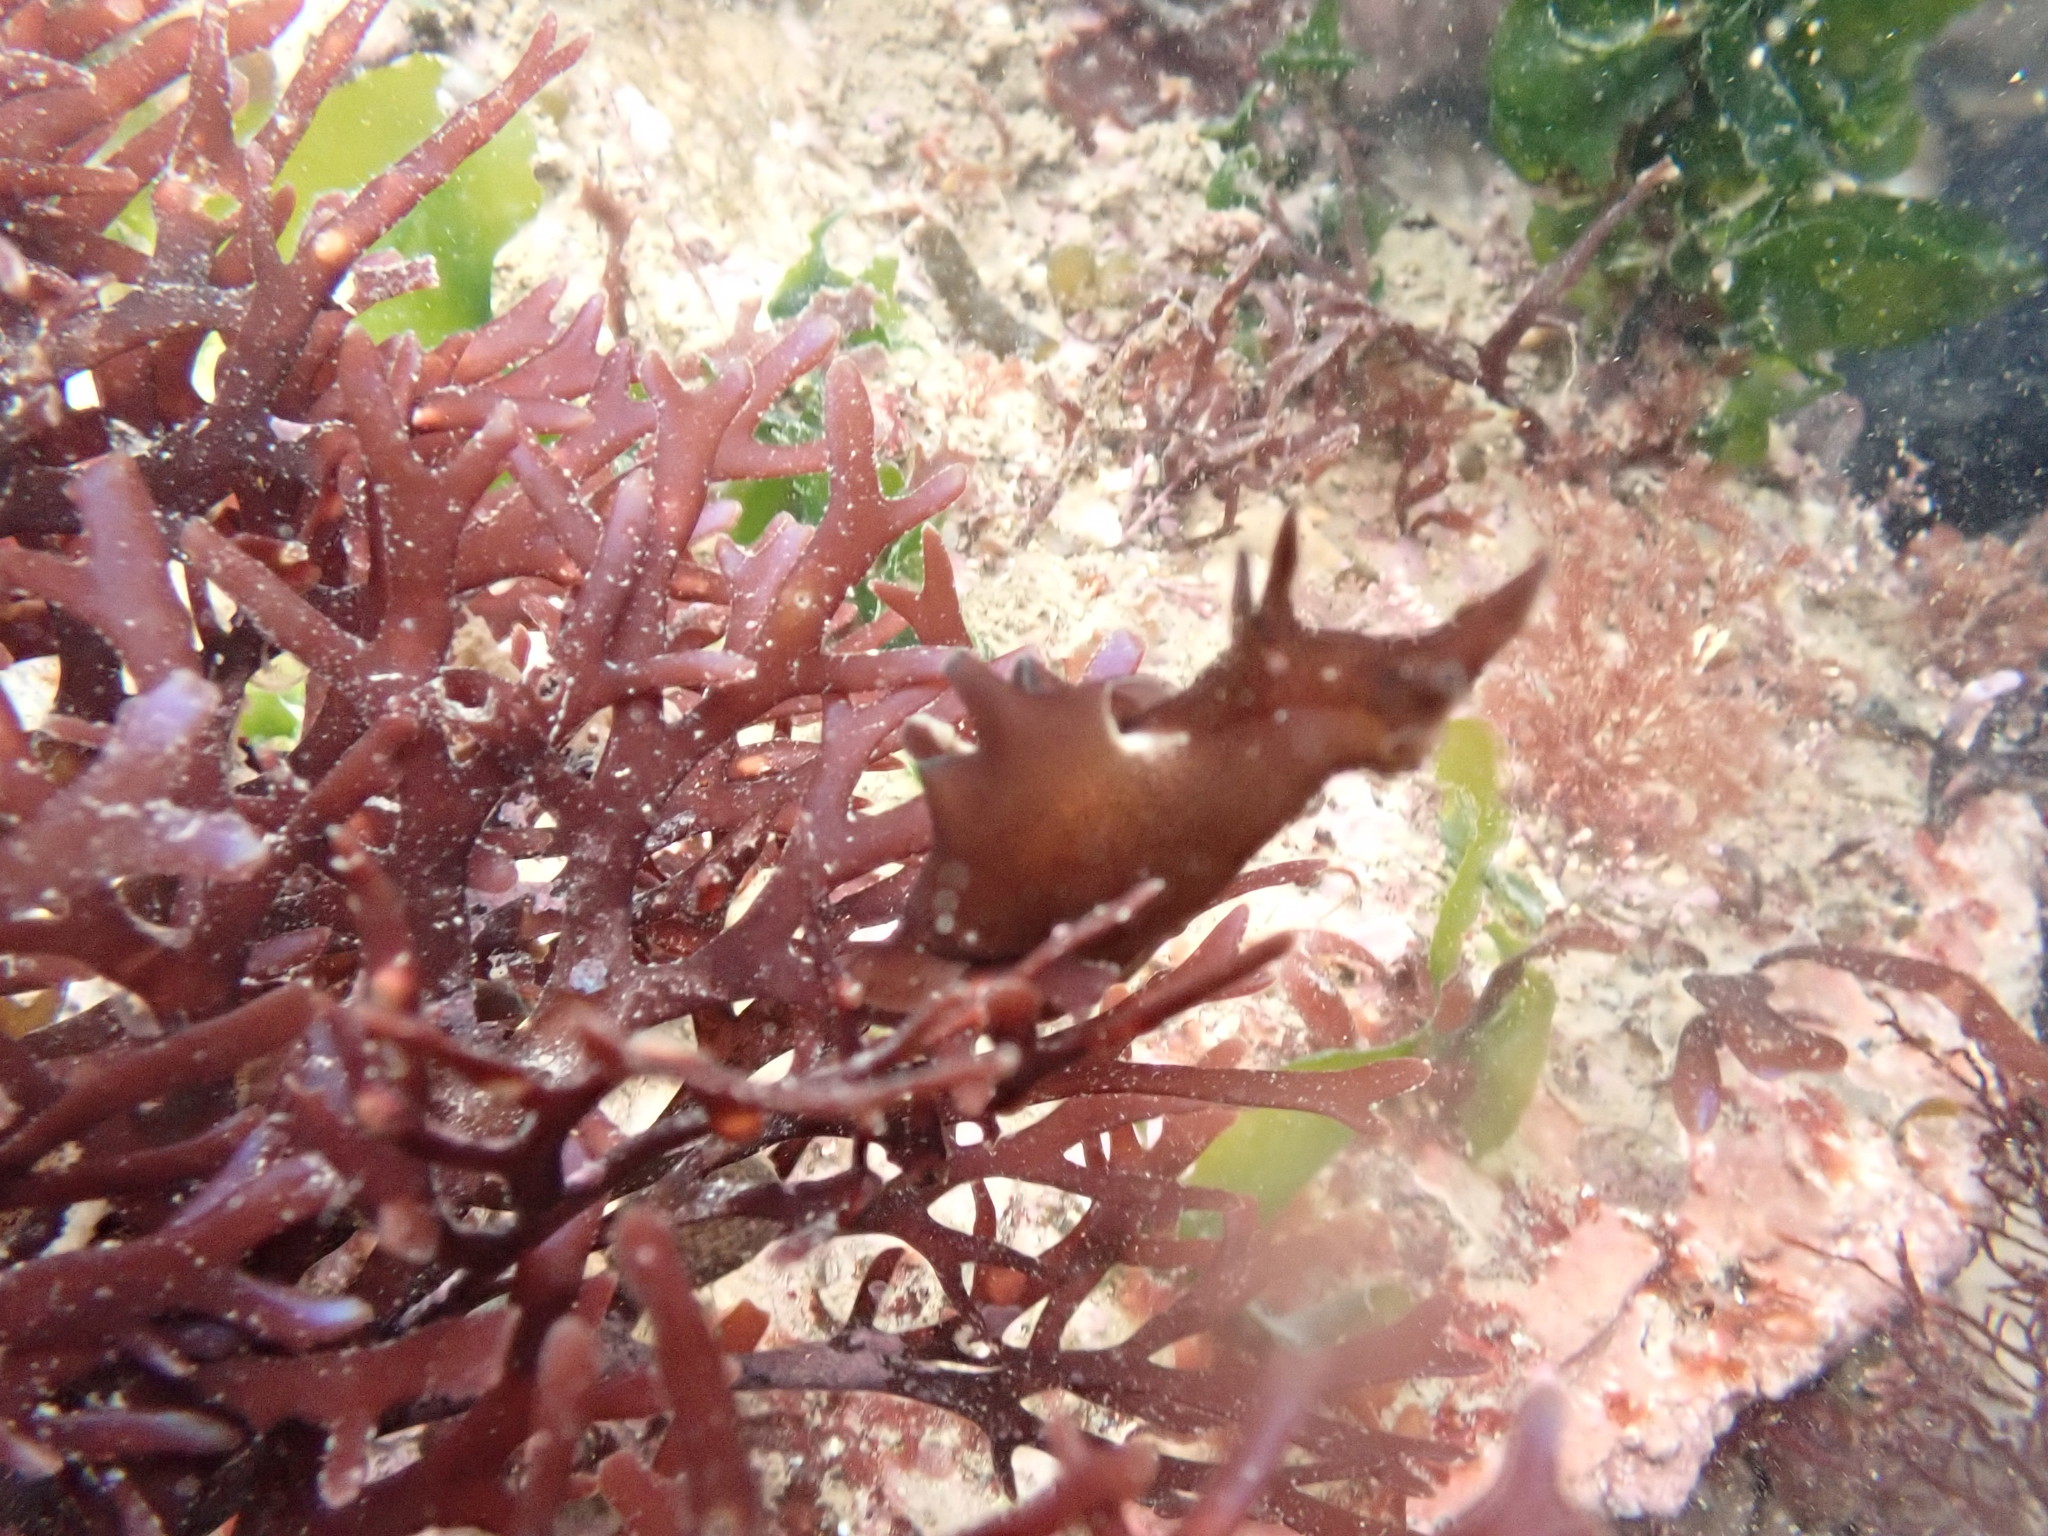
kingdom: Animalia
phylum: Mollusca
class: Gastropoda
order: Aplysiida
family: Aplysiidae
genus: Aplysia
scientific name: Aplysia punctata
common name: Common sea hare
